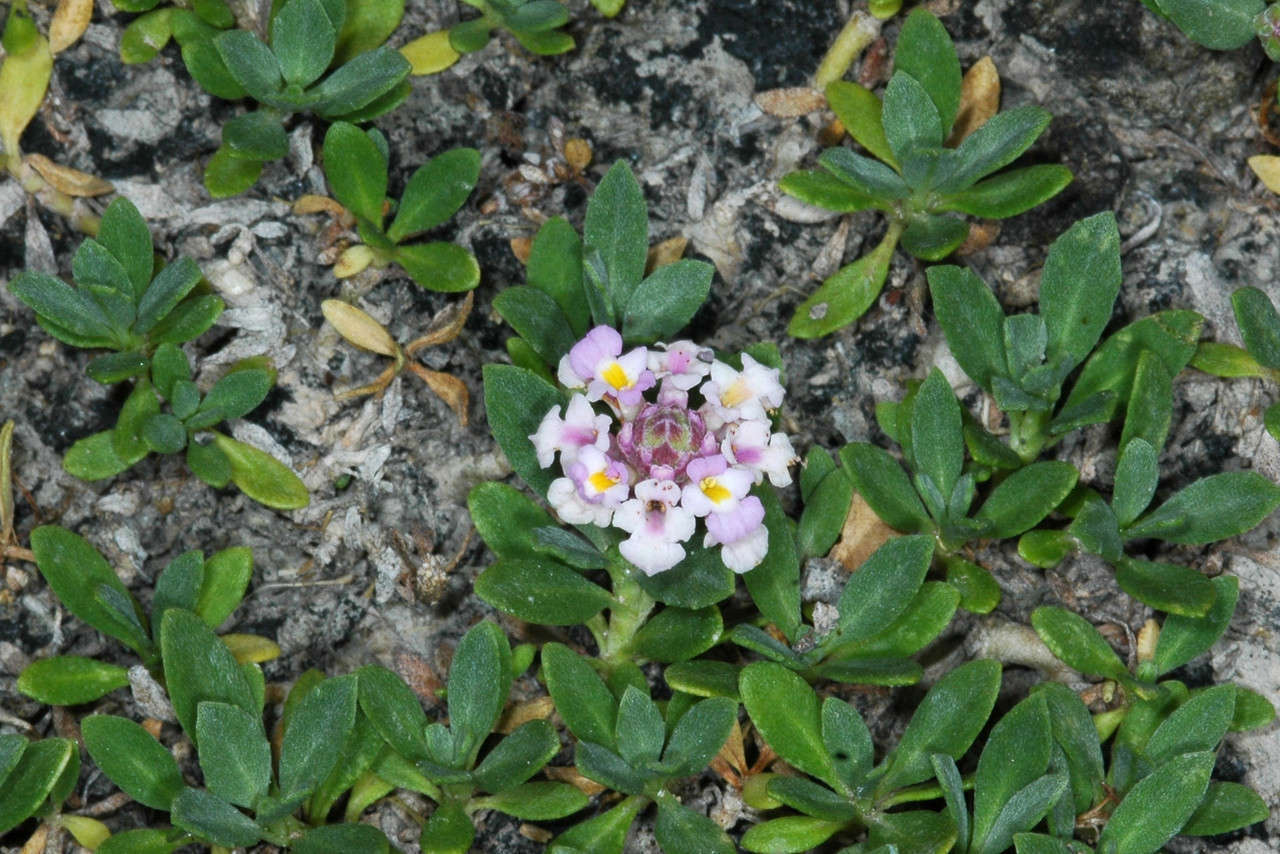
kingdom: Plantae
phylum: Tracheophyta
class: Magnoliopsida
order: Lamiales
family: Verbenaceae
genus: Phyla
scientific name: Phyla nodiflora
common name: Frogfruit
